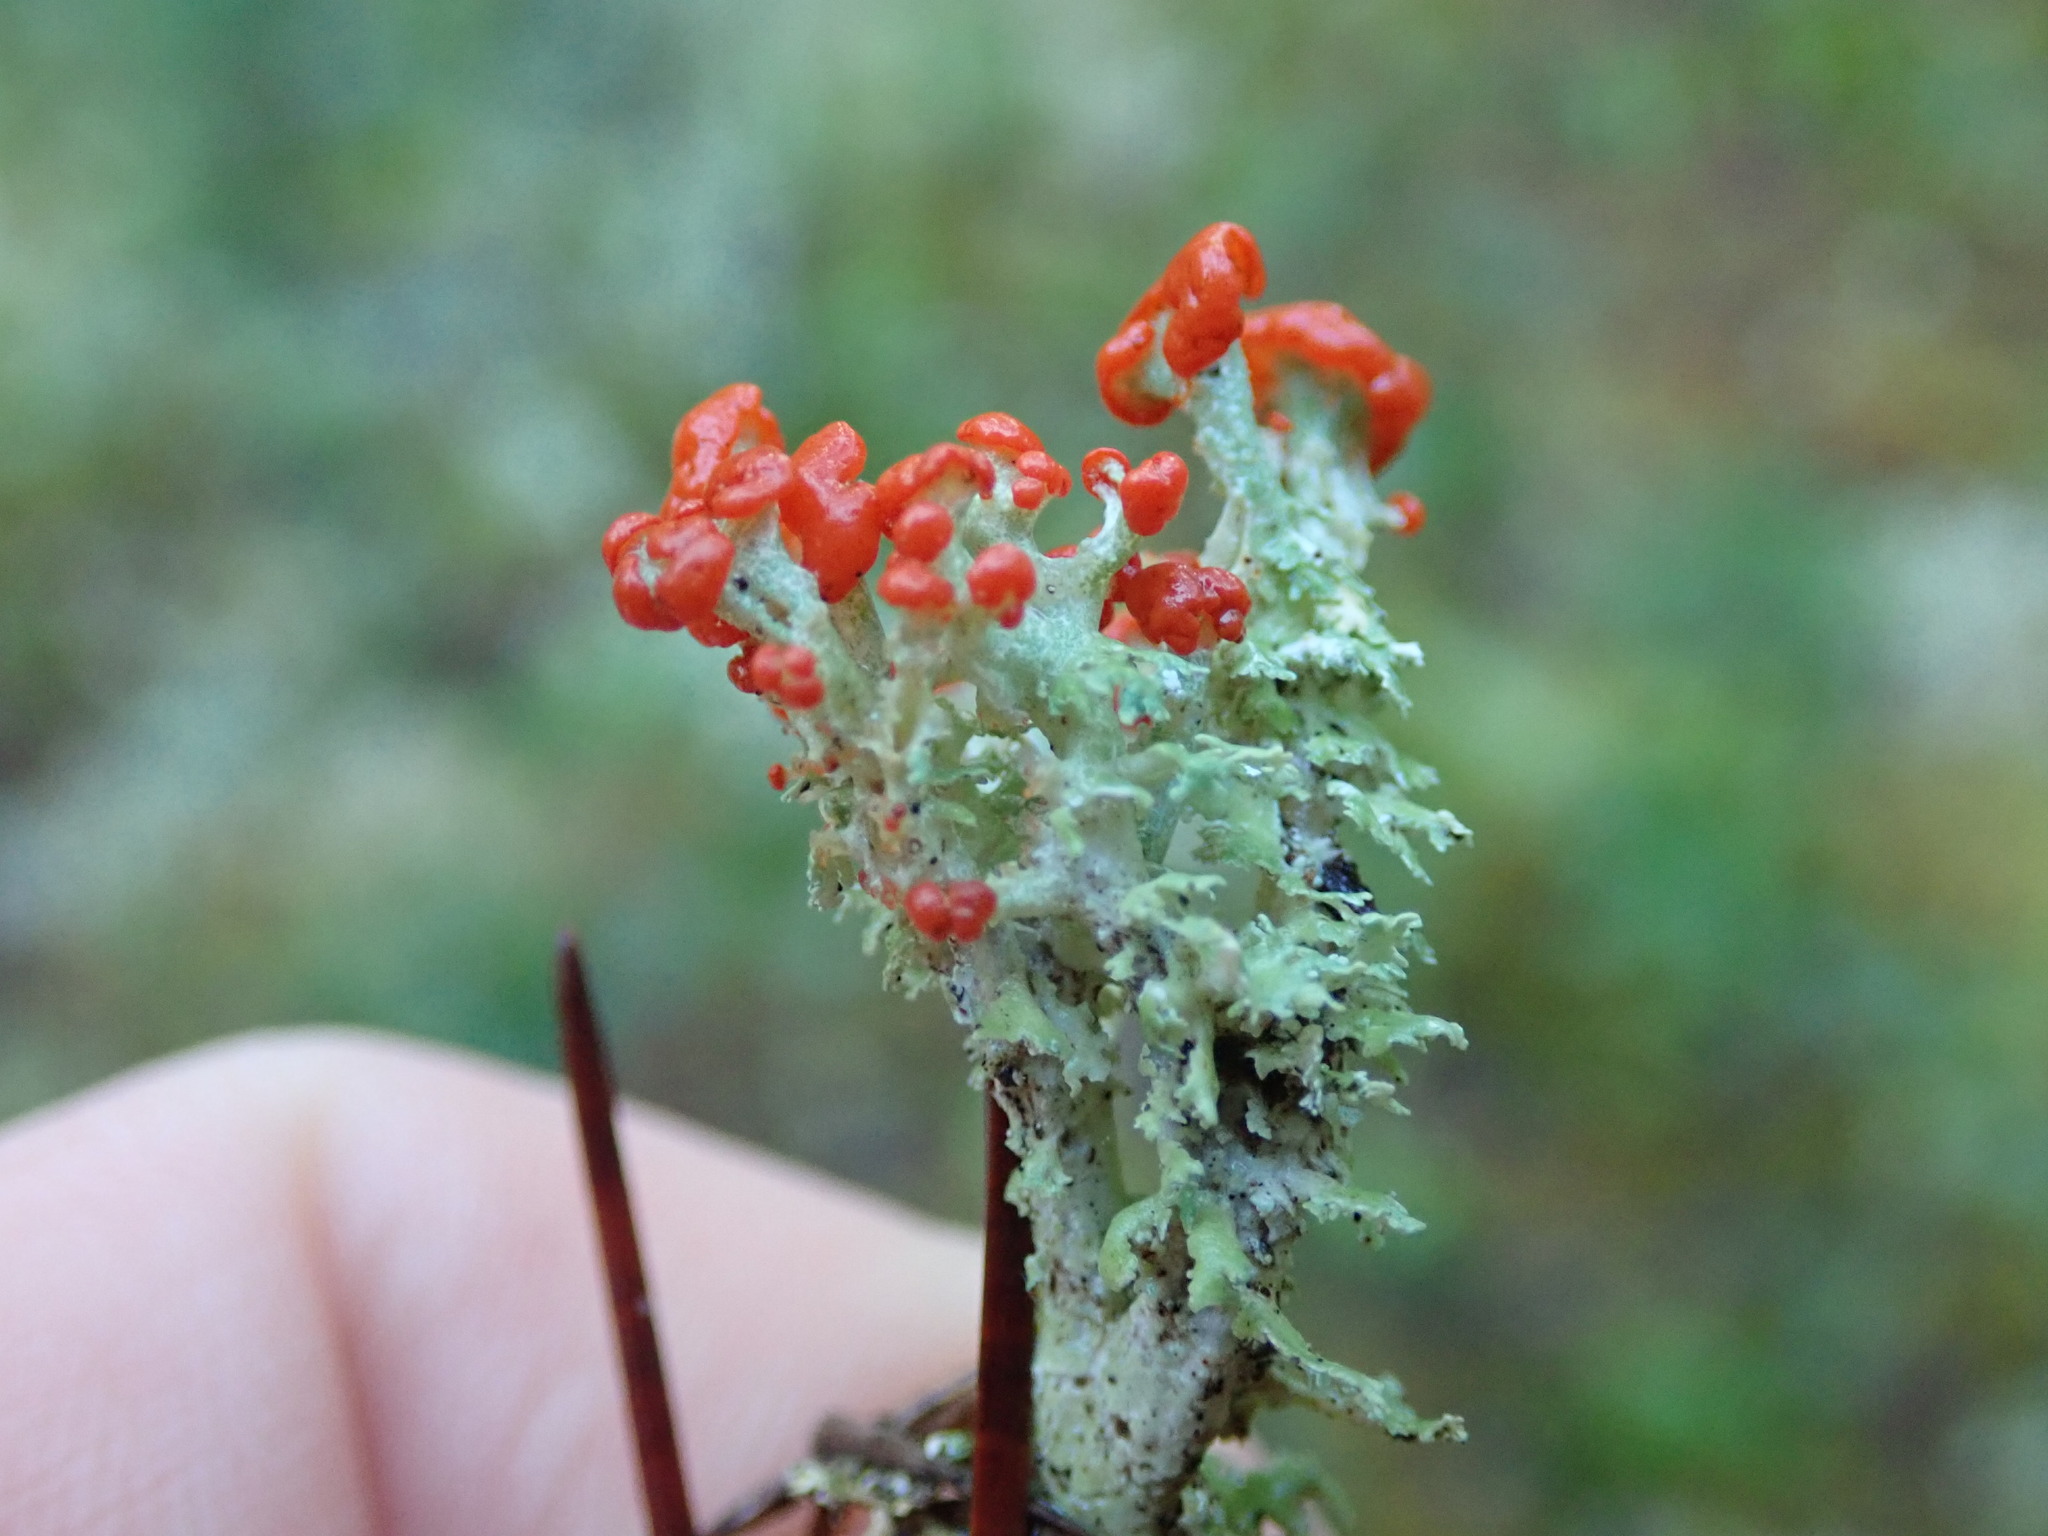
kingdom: Fungi
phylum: Ascomycota
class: Lecanoromycetes
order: Lecanorales
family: Cladoniaceae
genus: Cladonia
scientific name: Cladonia bellidiflora
